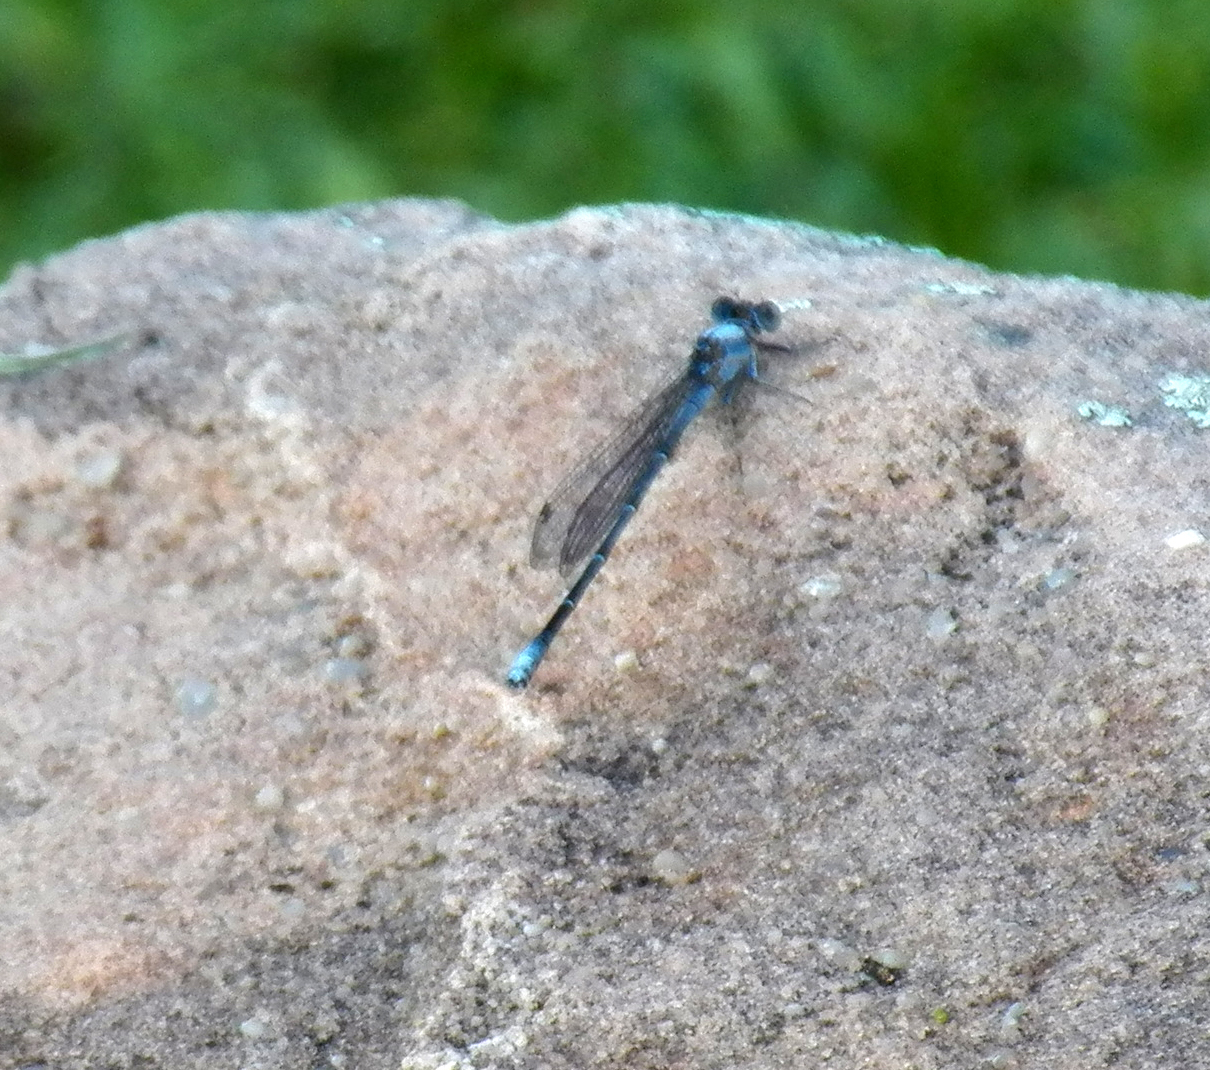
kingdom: Animalia
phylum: Arthropoda
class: Insecta
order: Odonata
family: Coenagrionidae
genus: Argia
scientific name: Argia moesta
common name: Powdered dancer
